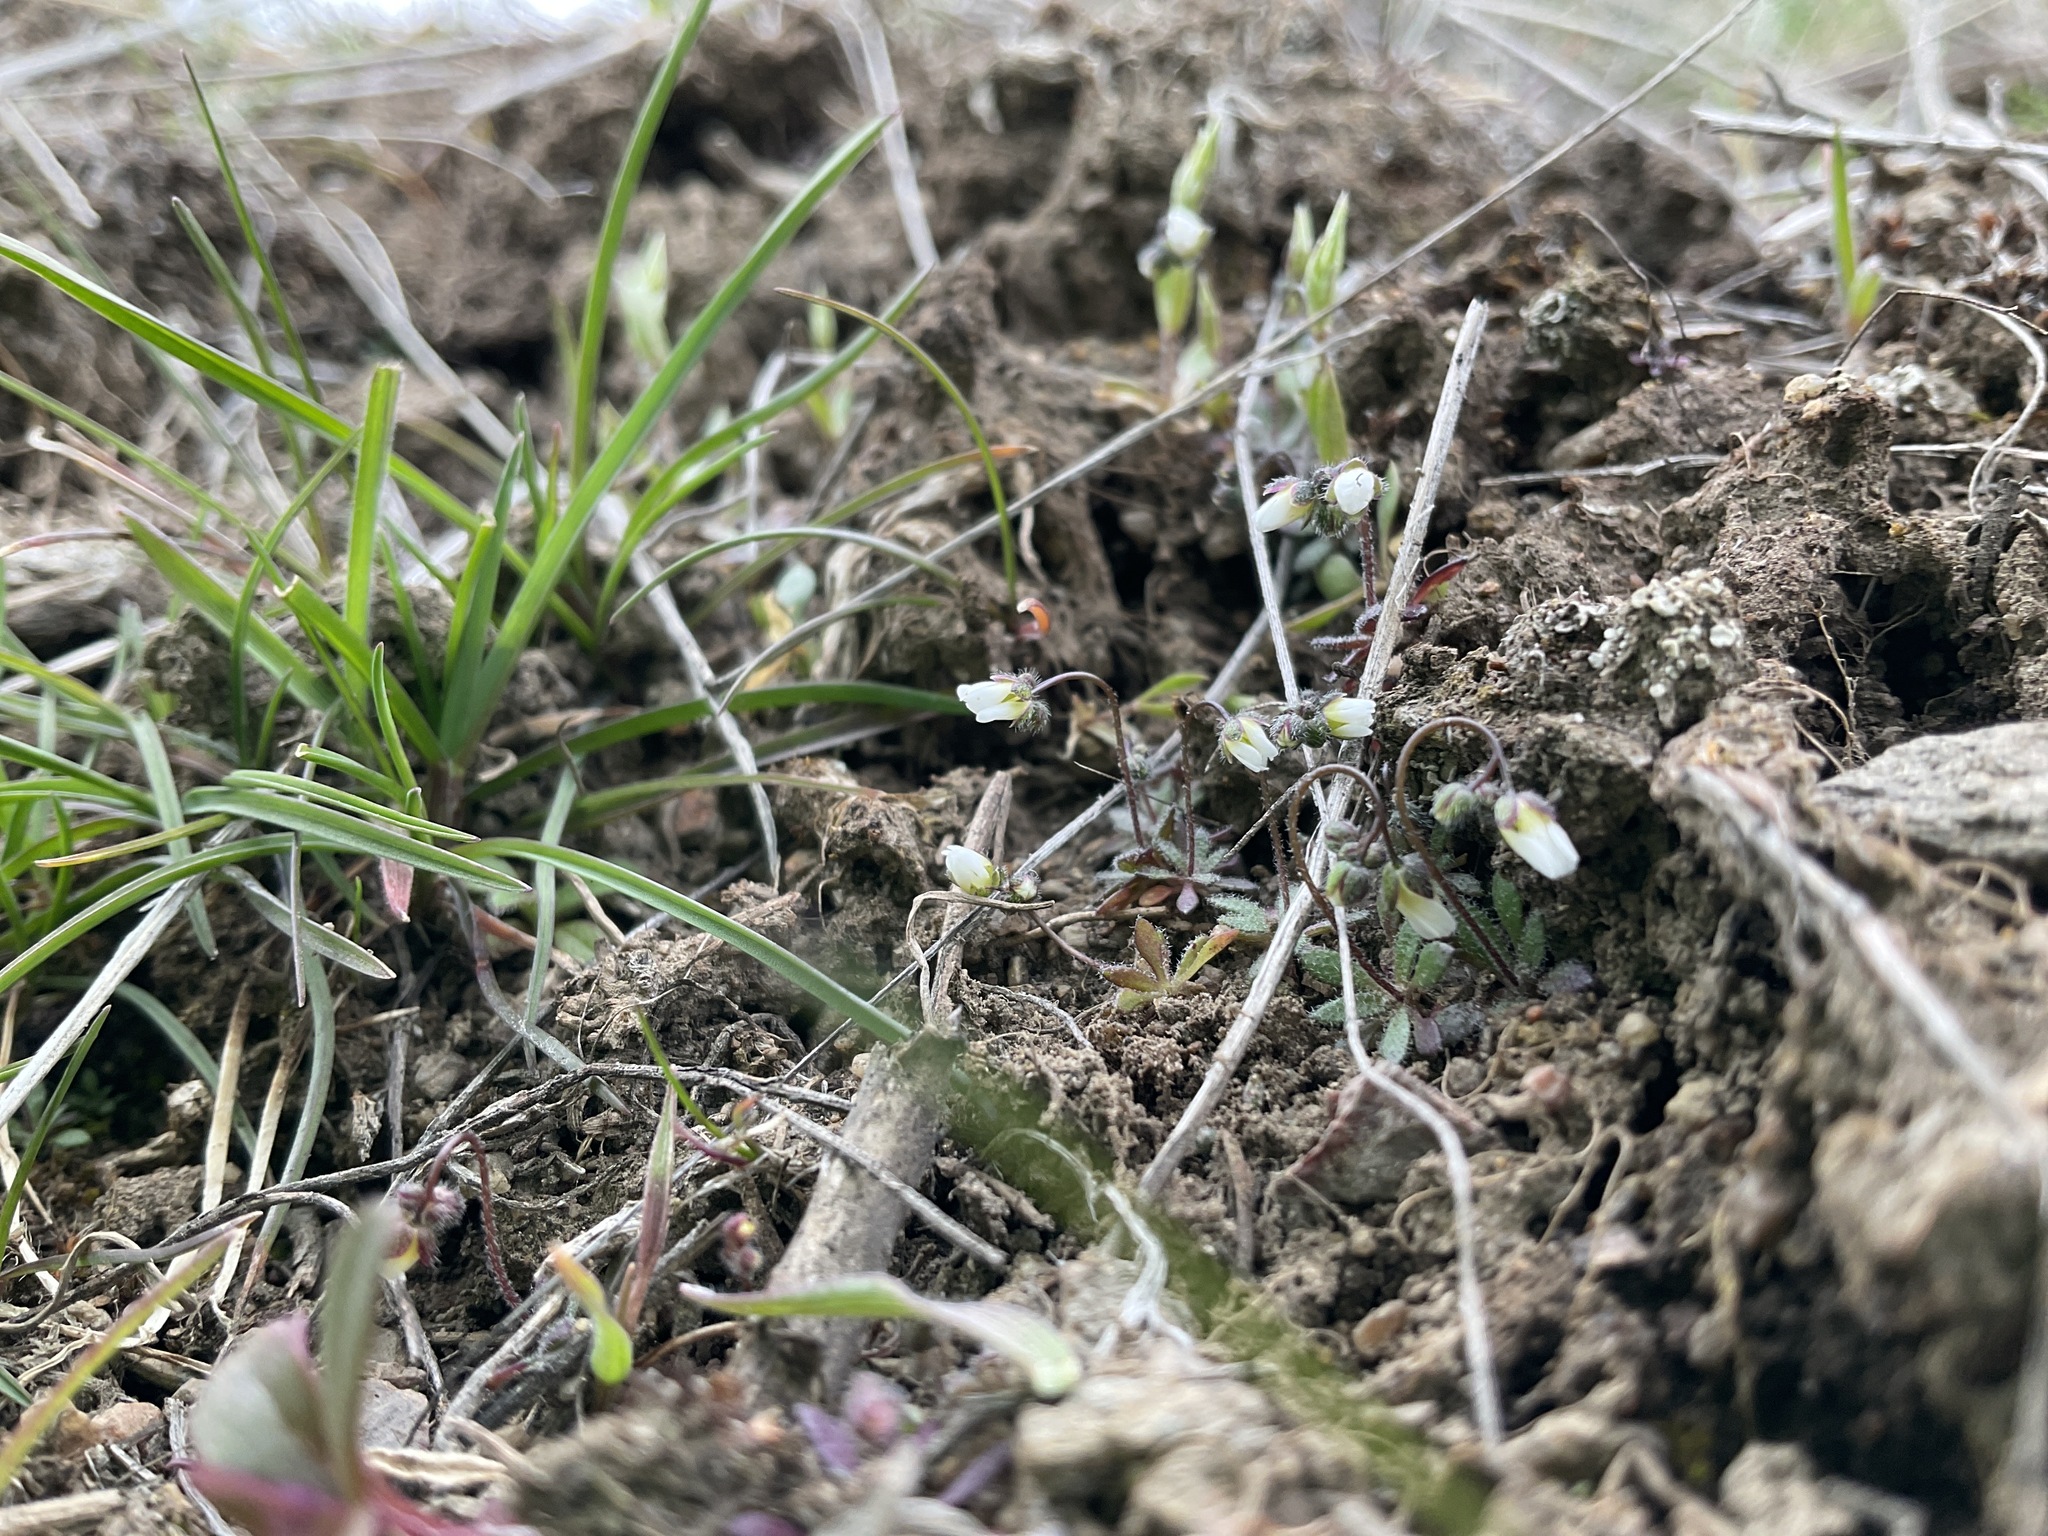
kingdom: Plantae
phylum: Tracheophyta
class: Magnoliopsida
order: Brassicales
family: Brassicaceae
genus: Draba
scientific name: Draba verna
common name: Spring draba
